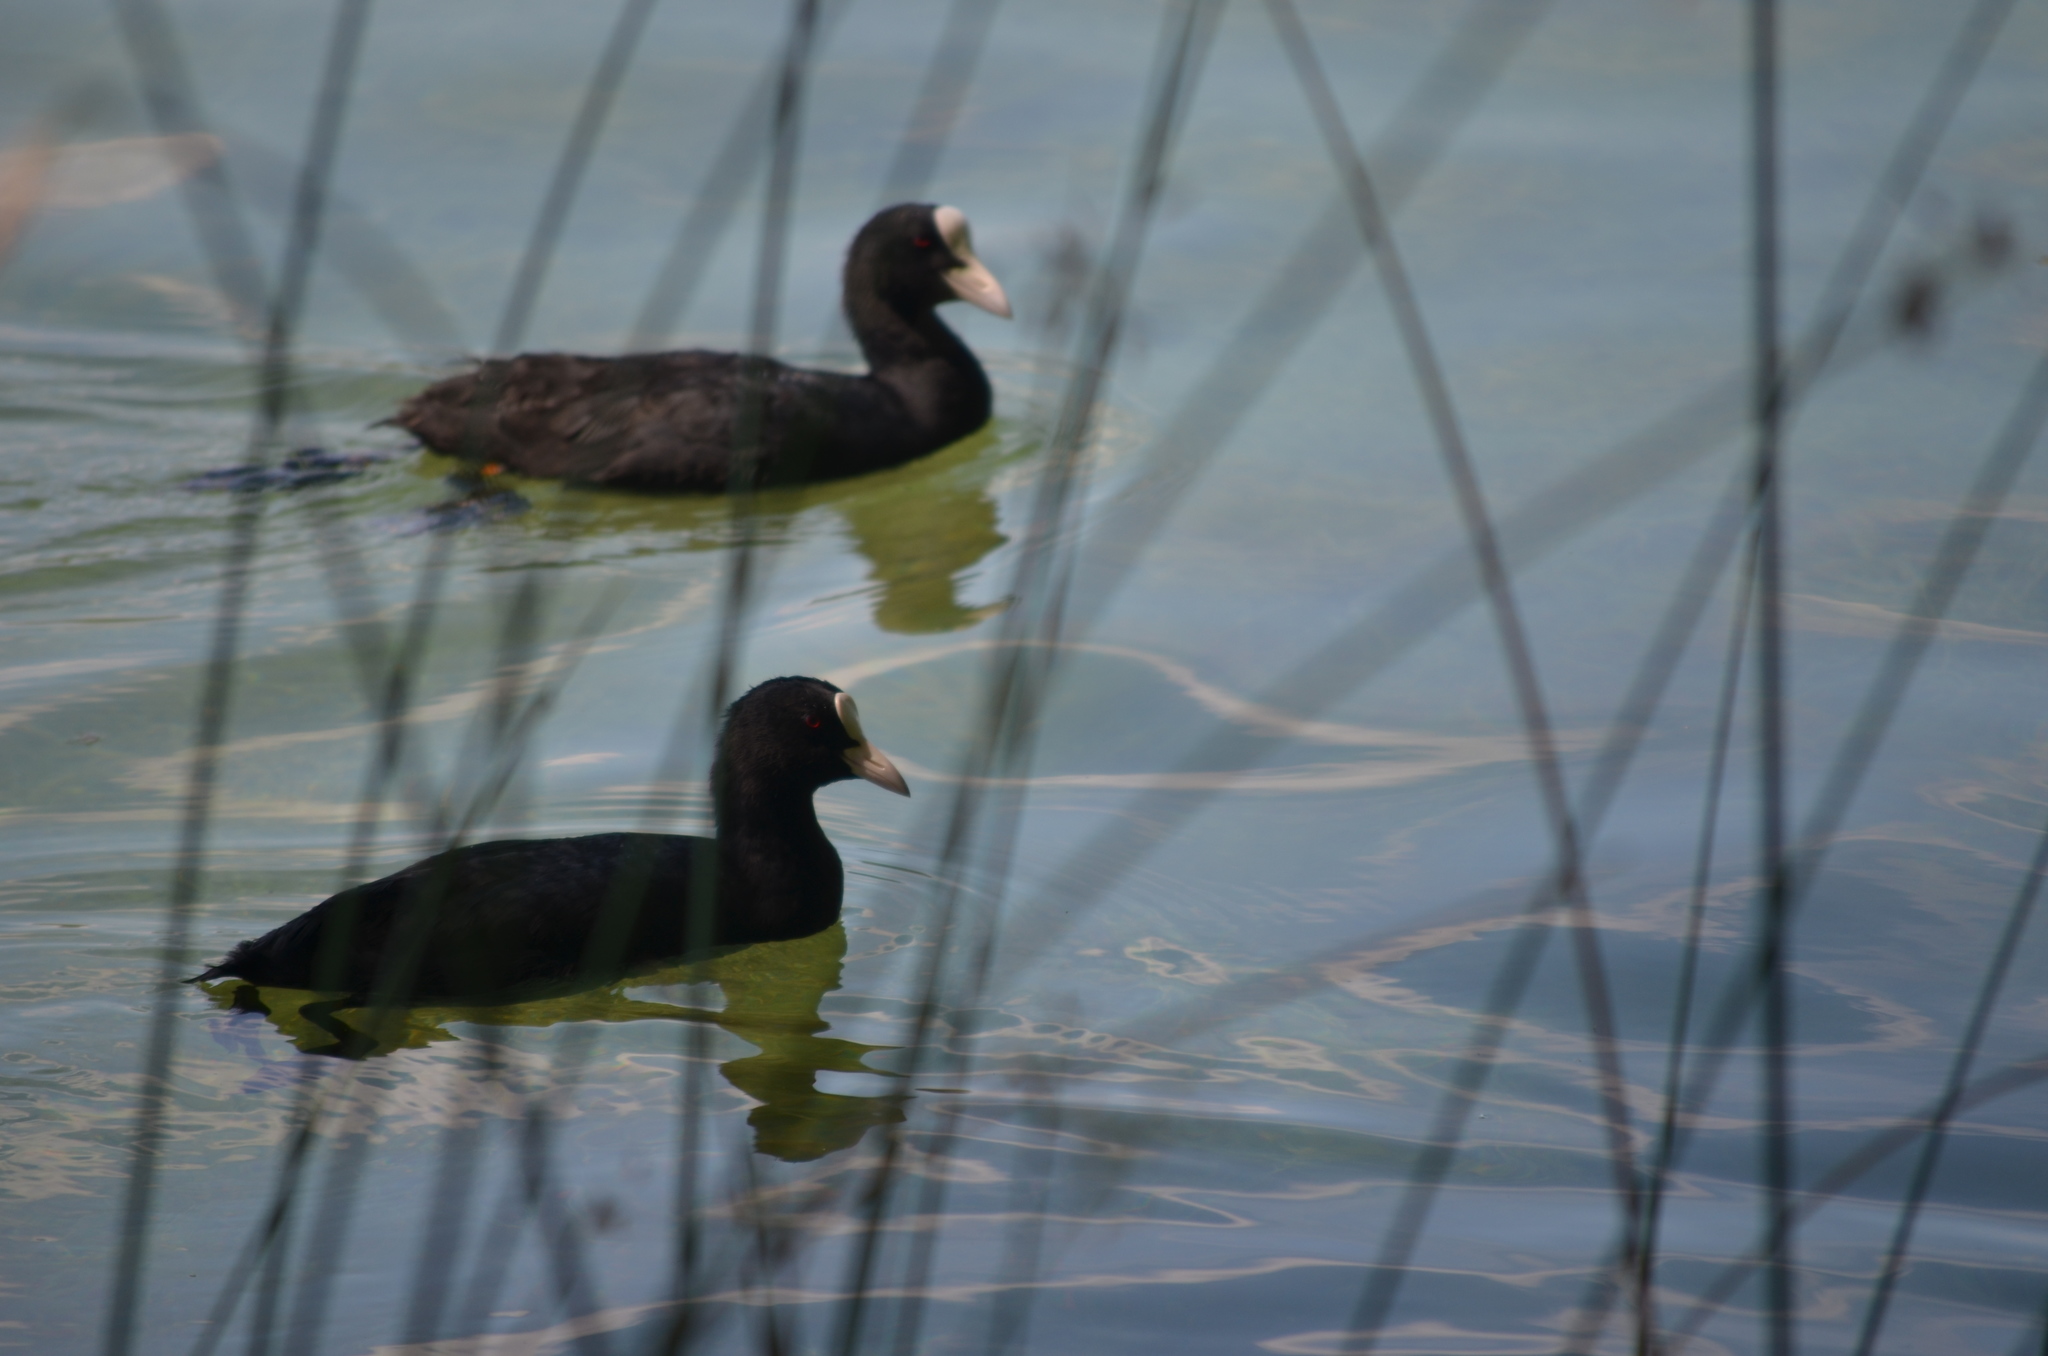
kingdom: Animalia
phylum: Chordata
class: Aves
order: Gruiformes
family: Rallidae
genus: Fulica
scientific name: Fulica atra
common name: Eurasian coot
